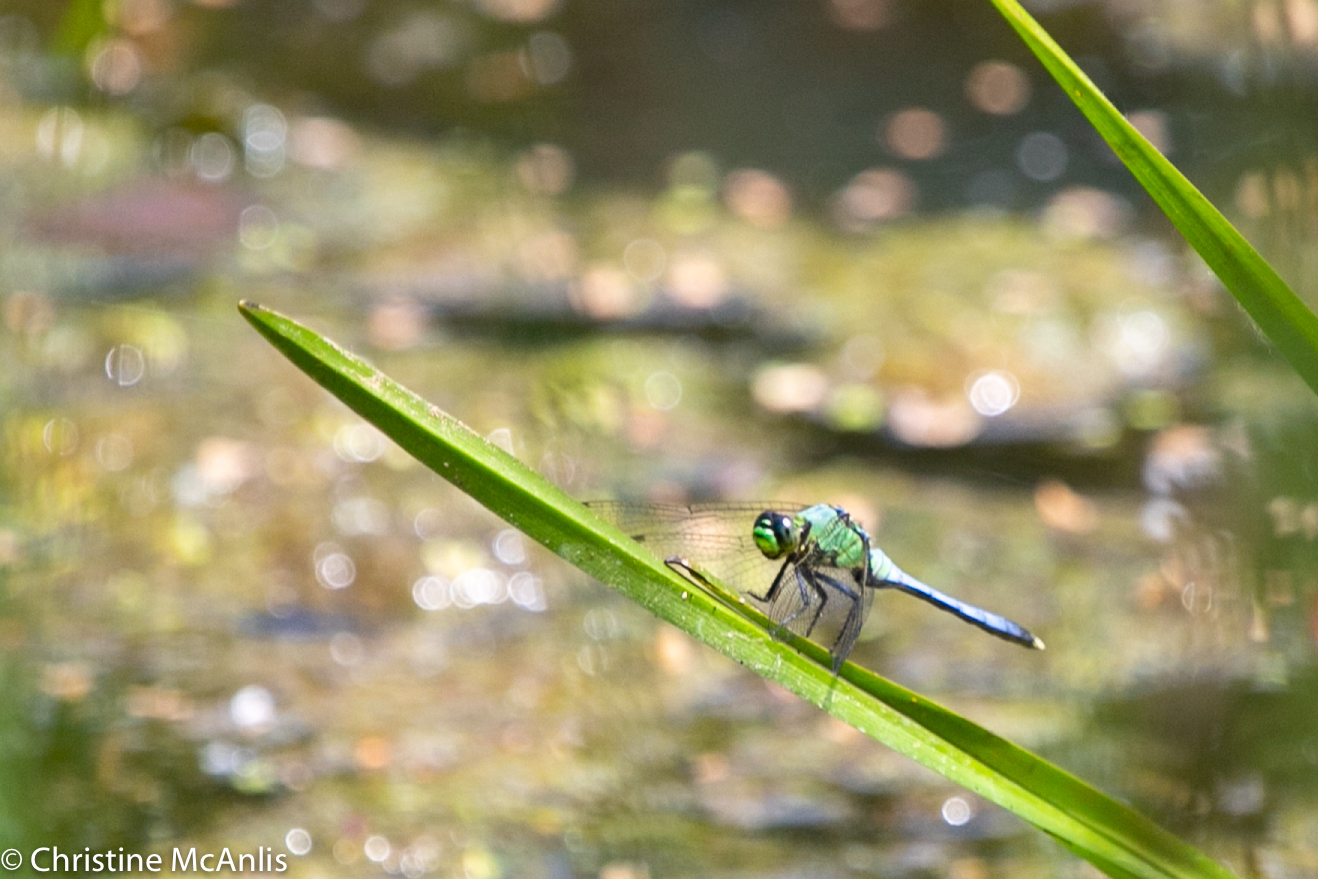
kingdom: Animalia
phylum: Arthropoda
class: Insecta
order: Odonata
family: Libellulidae
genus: Erythemis
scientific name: Erythemis simplicicollis
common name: Eastern pondhawk
